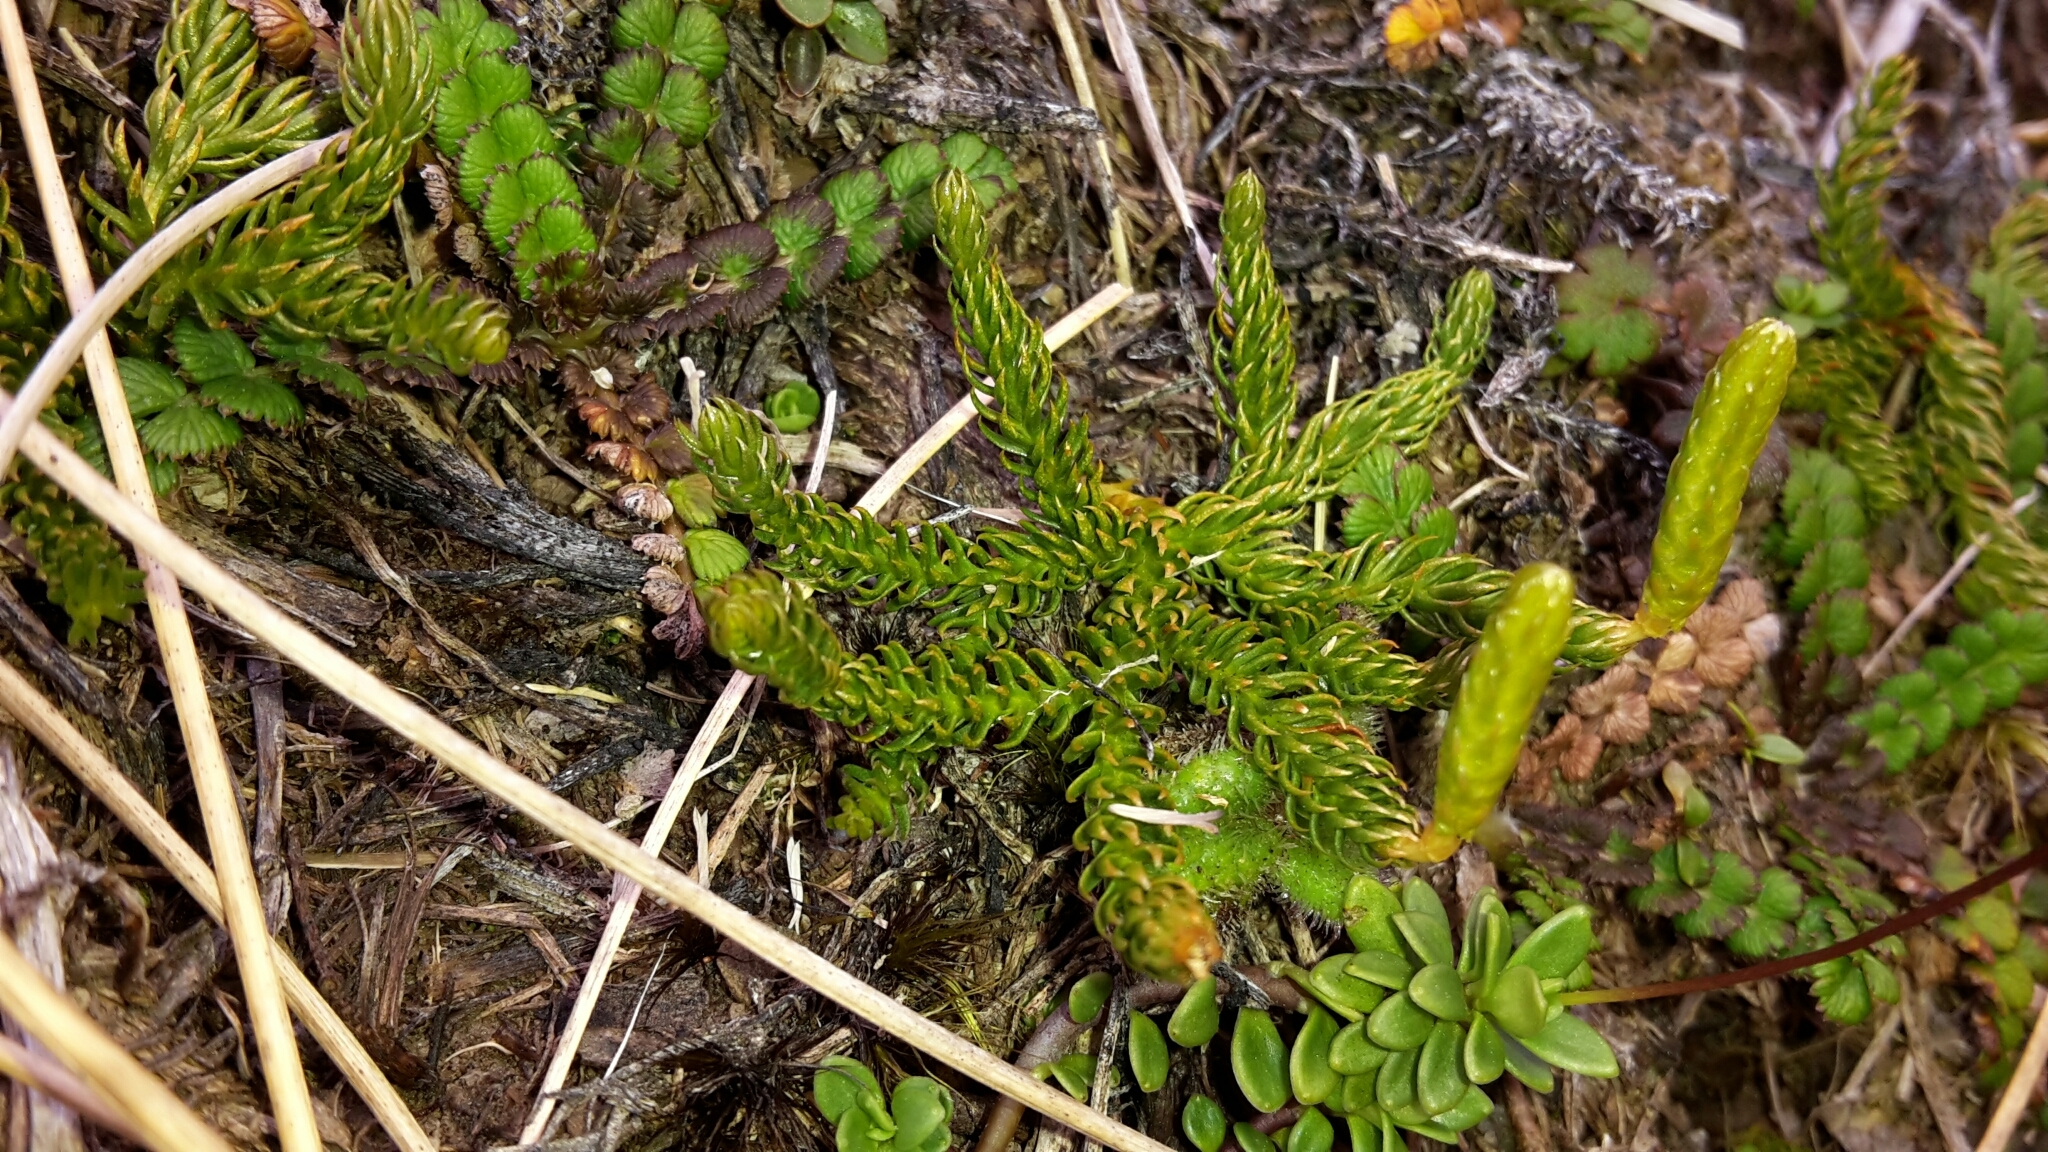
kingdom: Plantae
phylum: Tracheophyta
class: Lycopodiopsida
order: Lycopodiales
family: Lycopodiaceae
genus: Austrolycopodium
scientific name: Austrolycopodium fastigiatum
